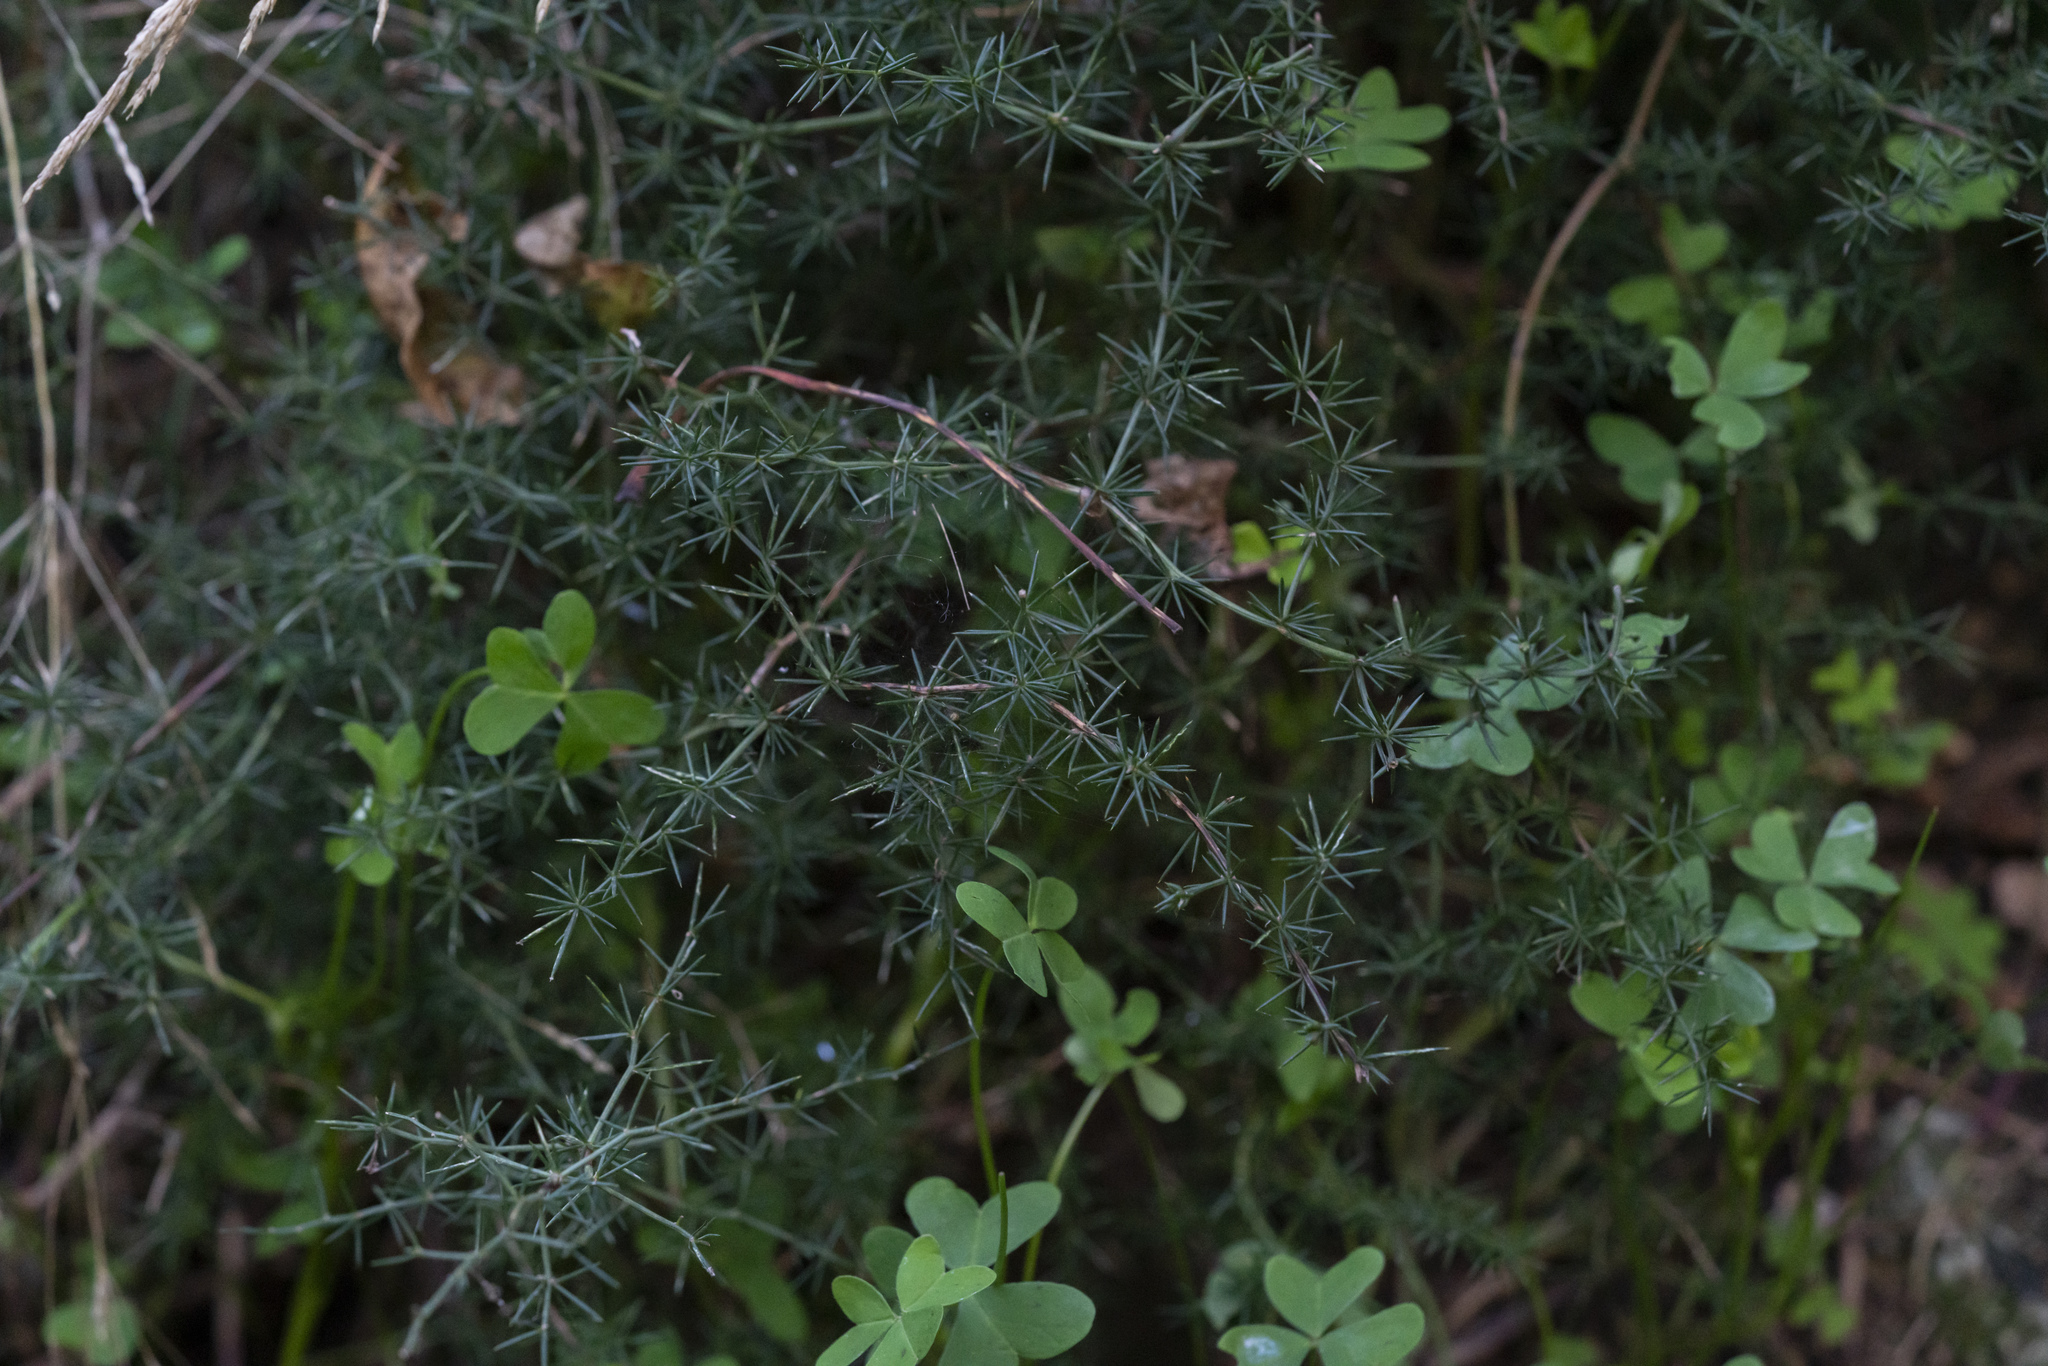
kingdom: Plantae
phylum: Tracheophyta
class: Liliopsida
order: Asparagales
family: Asparagaceae
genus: Asparagus
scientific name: Asparagus aphyllus
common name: Mediterranean asparagus
